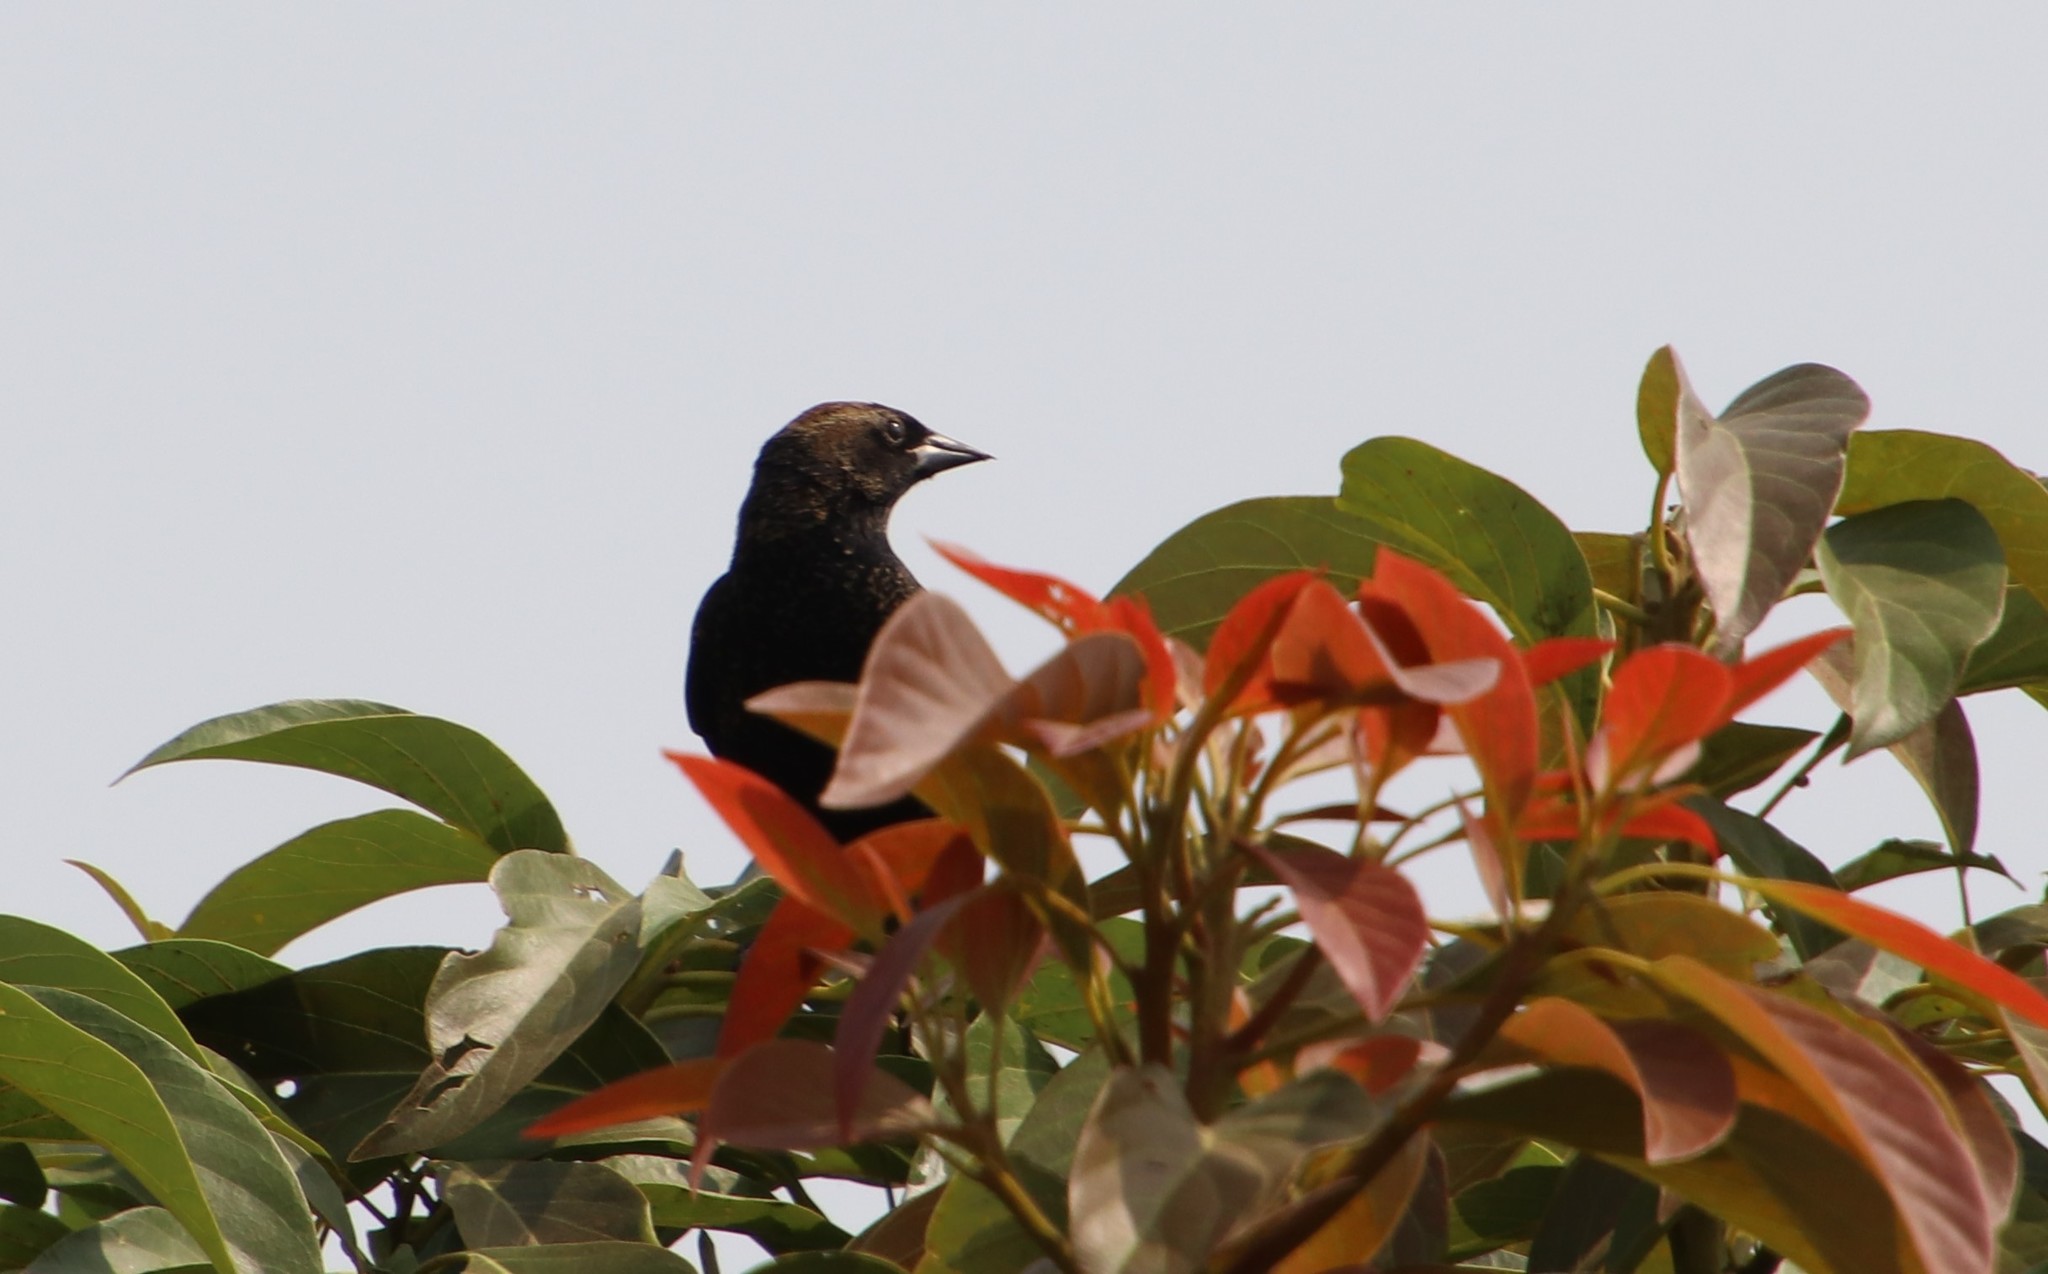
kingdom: Animalia
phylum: Chordata
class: Aves
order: Passeriformes
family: Icteridae
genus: Agelaius
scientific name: Agelaius phoeniceus
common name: Red-winged blackbird
